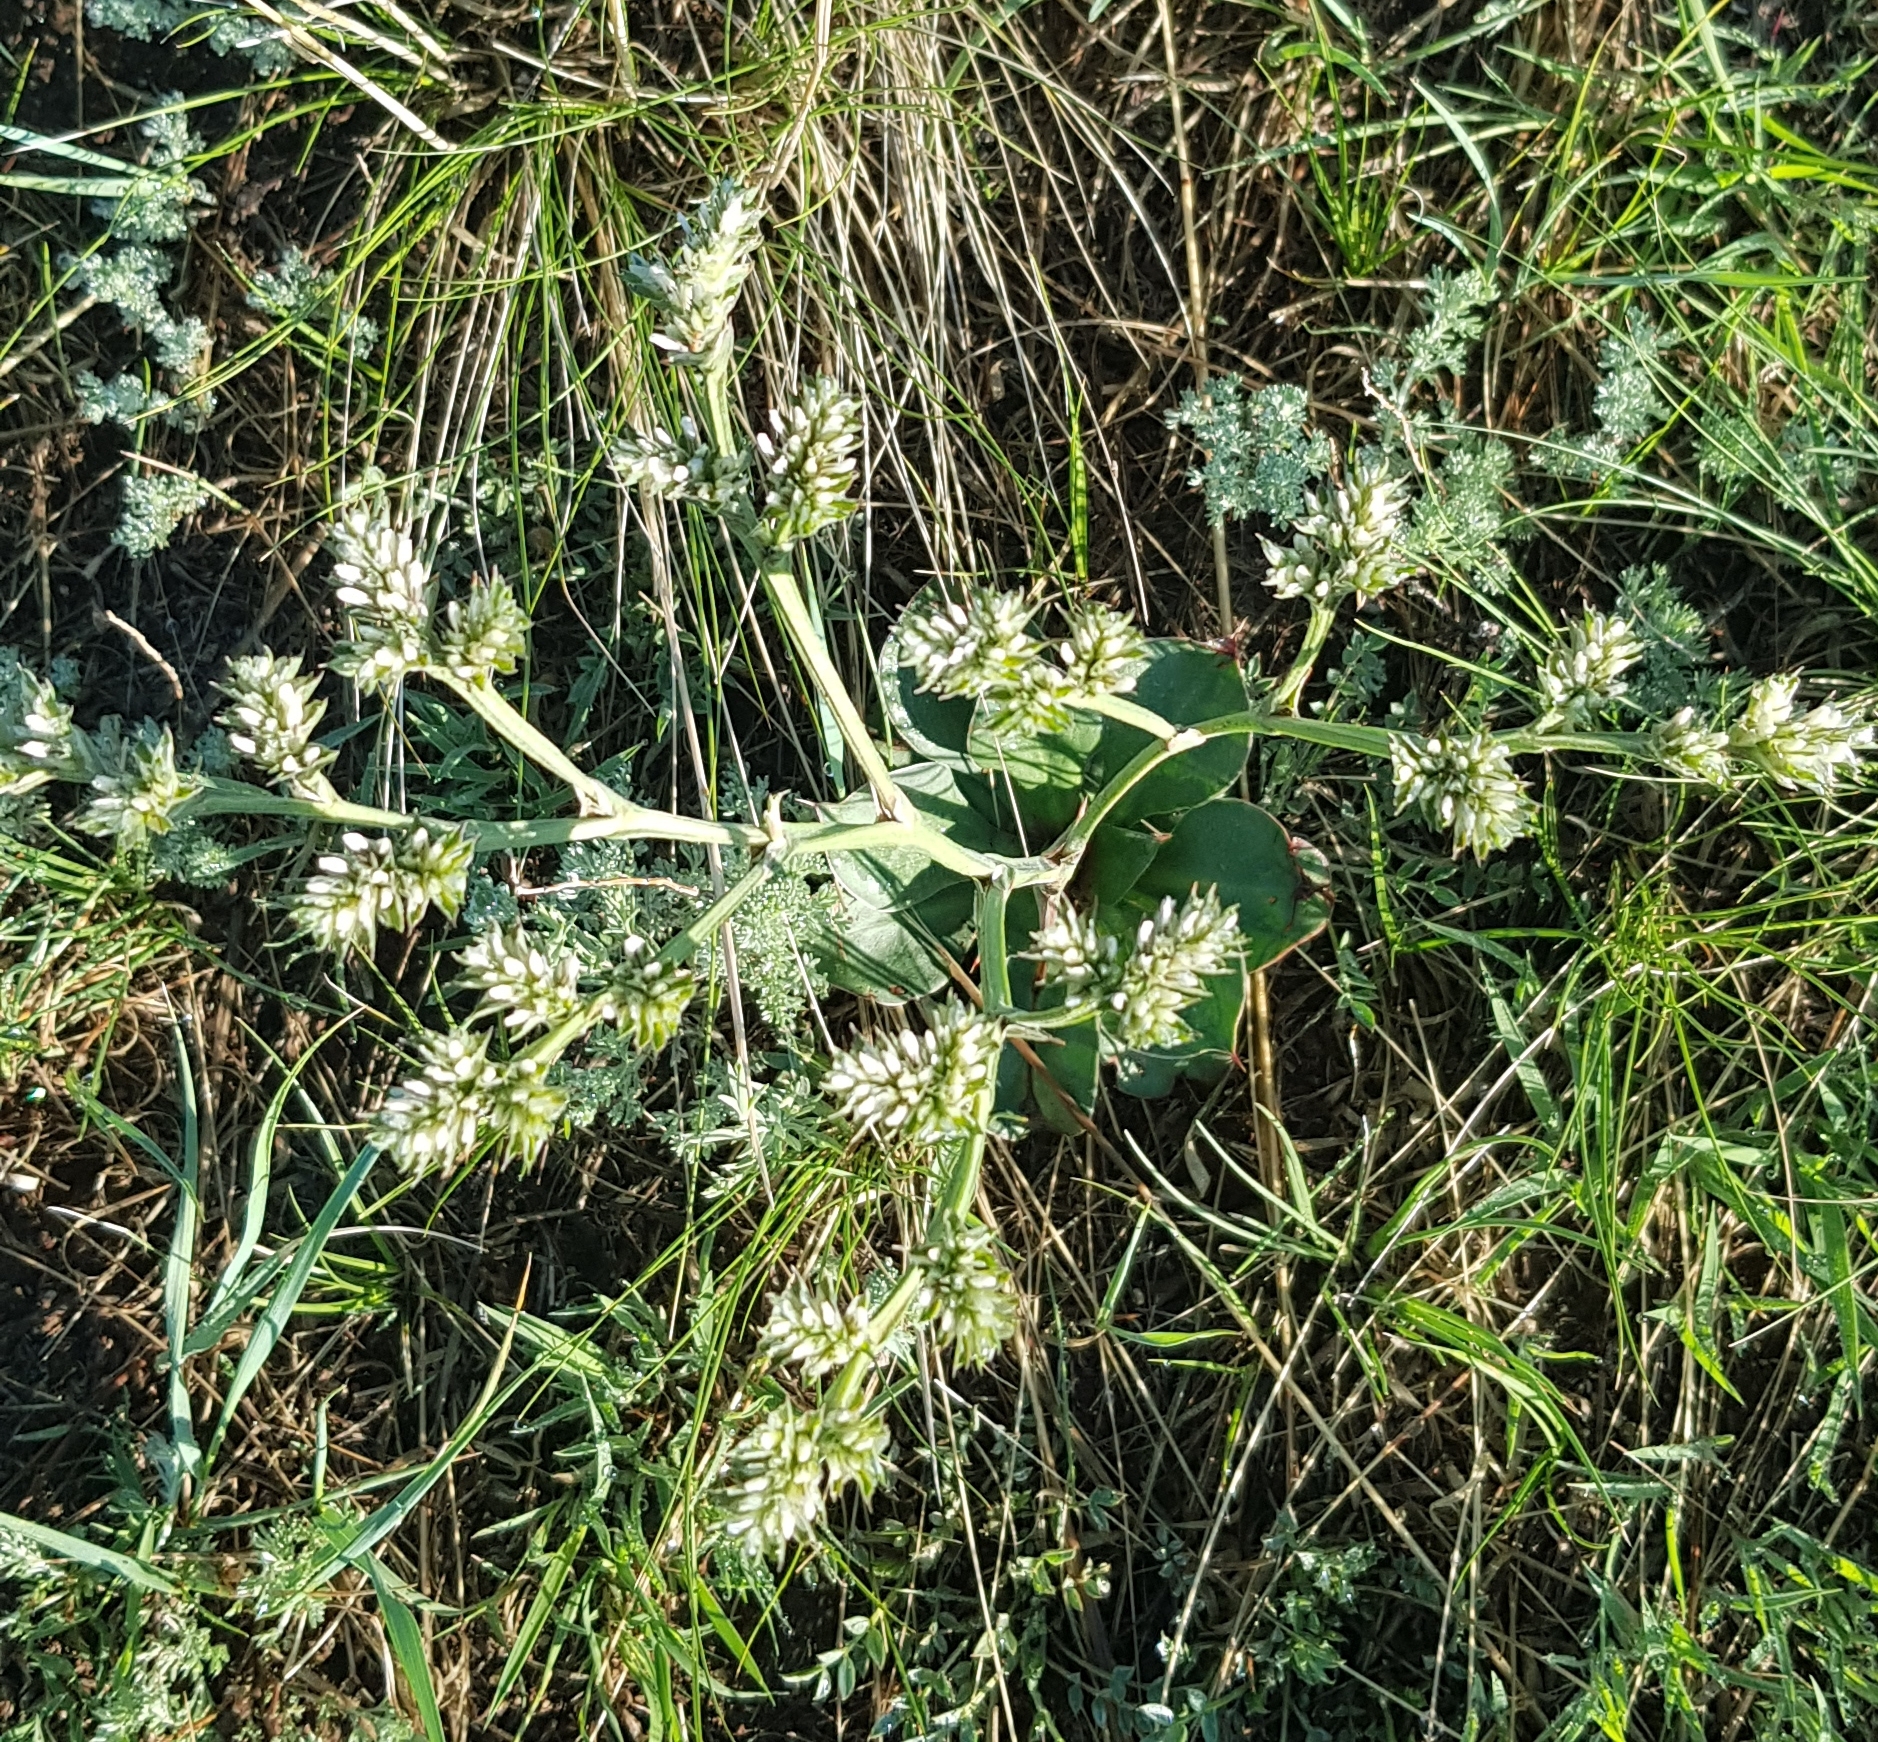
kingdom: Plantae
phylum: Tracheophyta
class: Magnoliopsida
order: Caryophyllales
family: Plumbaginaceae
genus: Goniolimon
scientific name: Goniolimon speciosum
